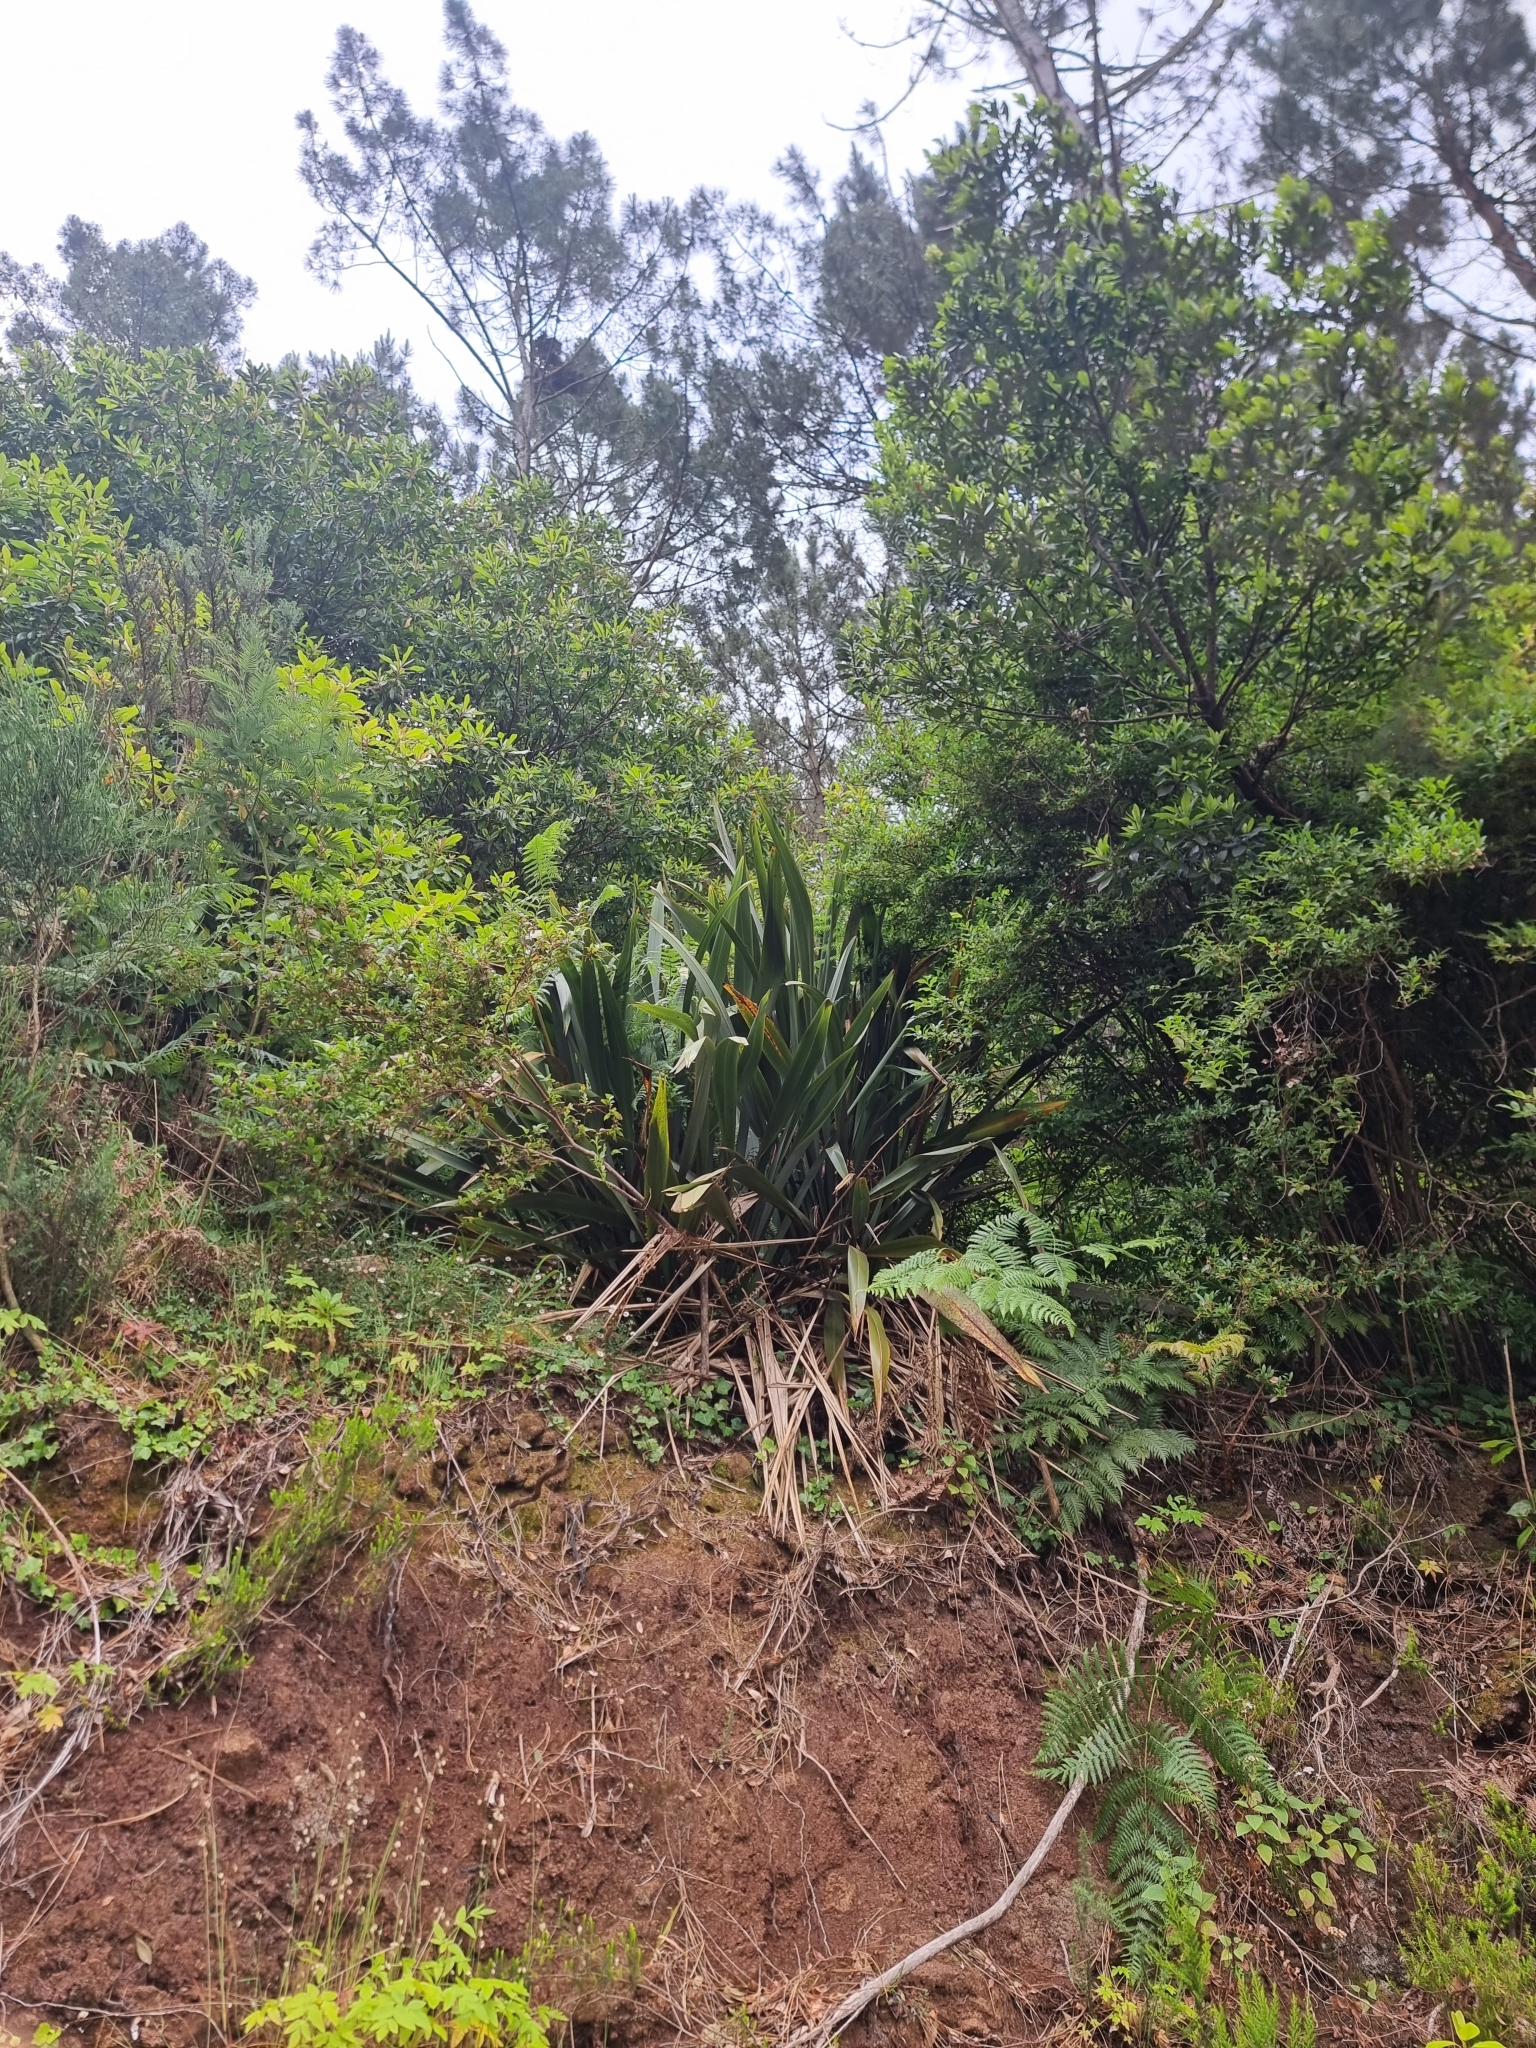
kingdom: Plantae
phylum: Tracheophyta
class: Liliopsida
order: Asparagales
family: Asphodelaceae
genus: Phormium
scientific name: Phormium tenax
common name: New zealand flax
